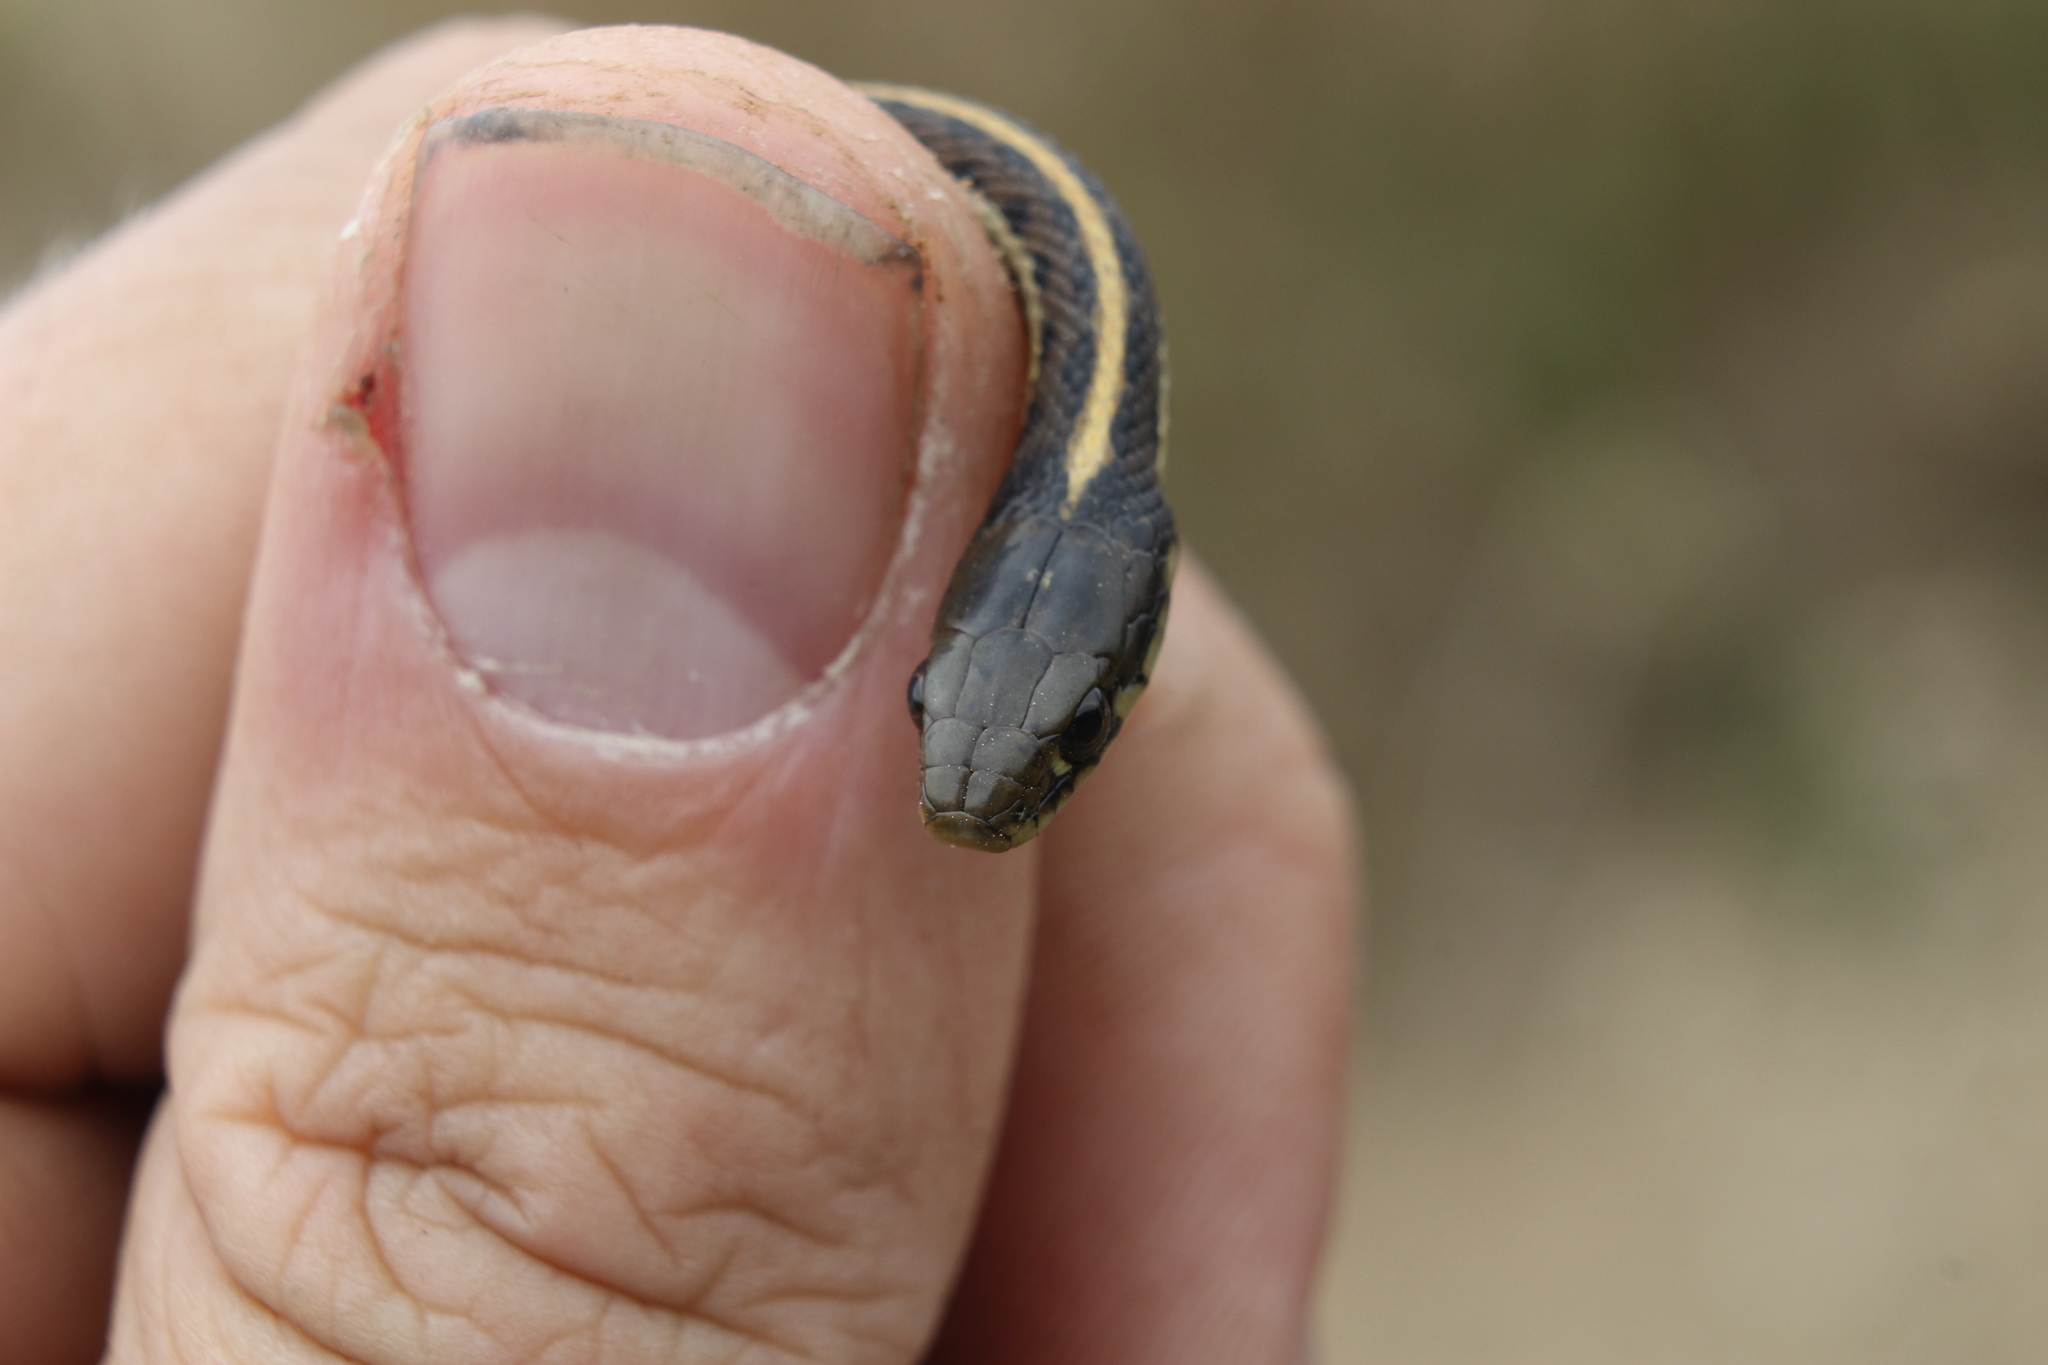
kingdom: Animalia
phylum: Chordata
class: Squamata
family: Colubridae
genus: Thamnophis
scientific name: Thamnophis elegans
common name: Western terrestrial garter snake
